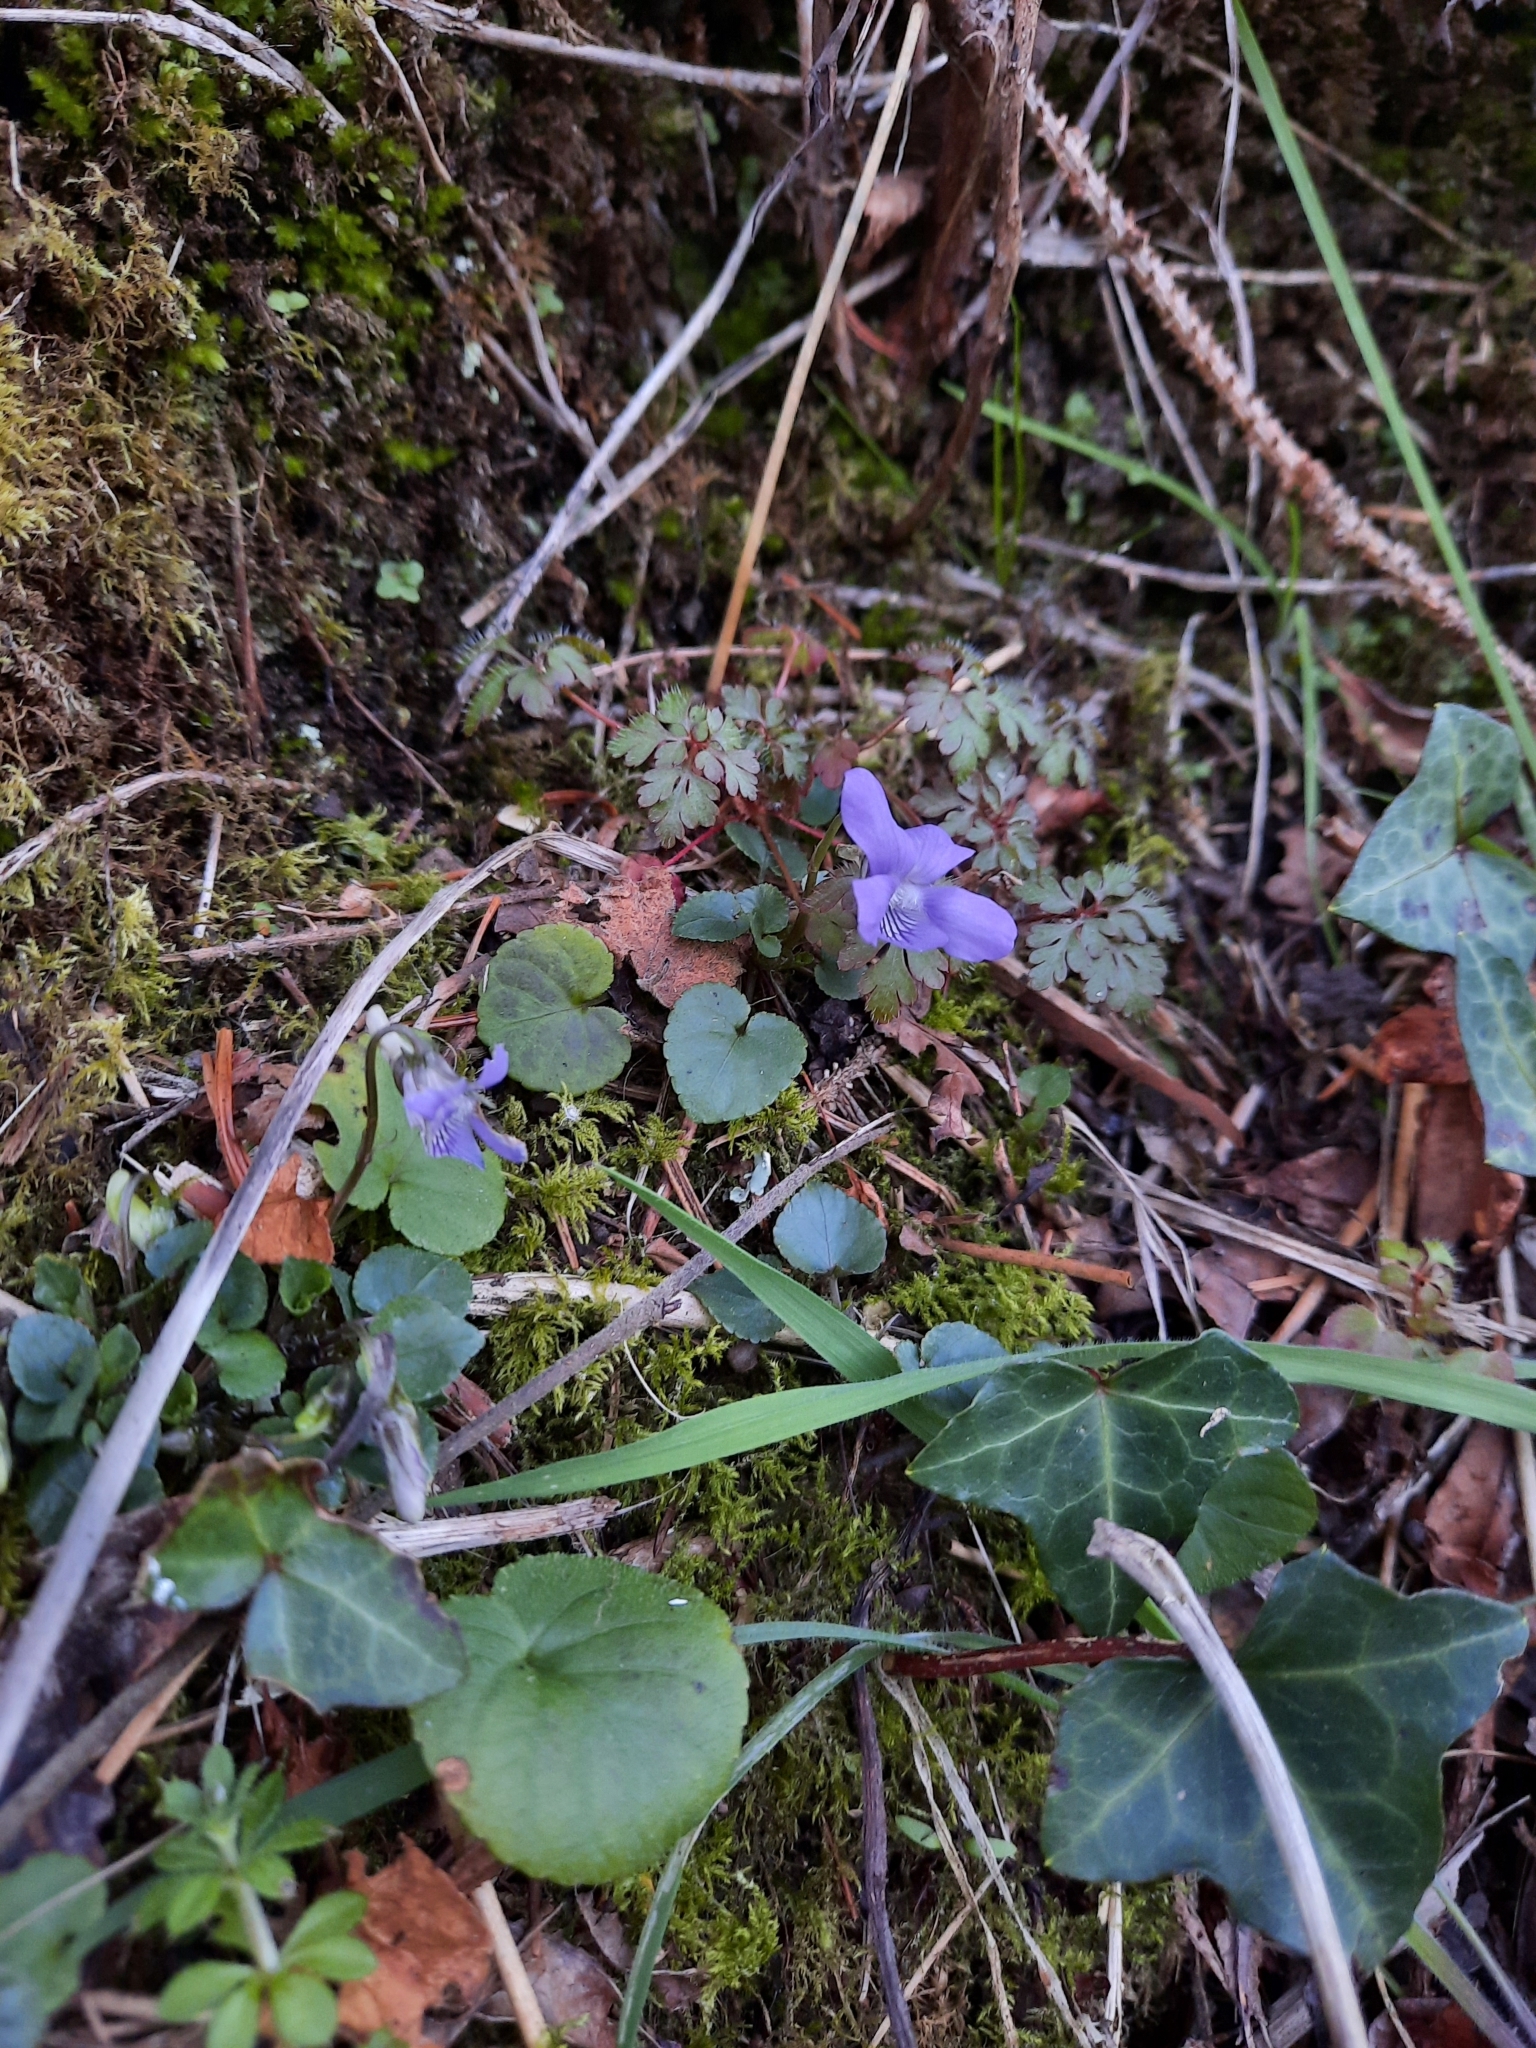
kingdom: Plantae
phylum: Tracheophyta
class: Magnoliopsida
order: Malpighiales
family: Violaceae
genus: Viola
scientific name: Viola riviniana
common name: Common dog-violet
